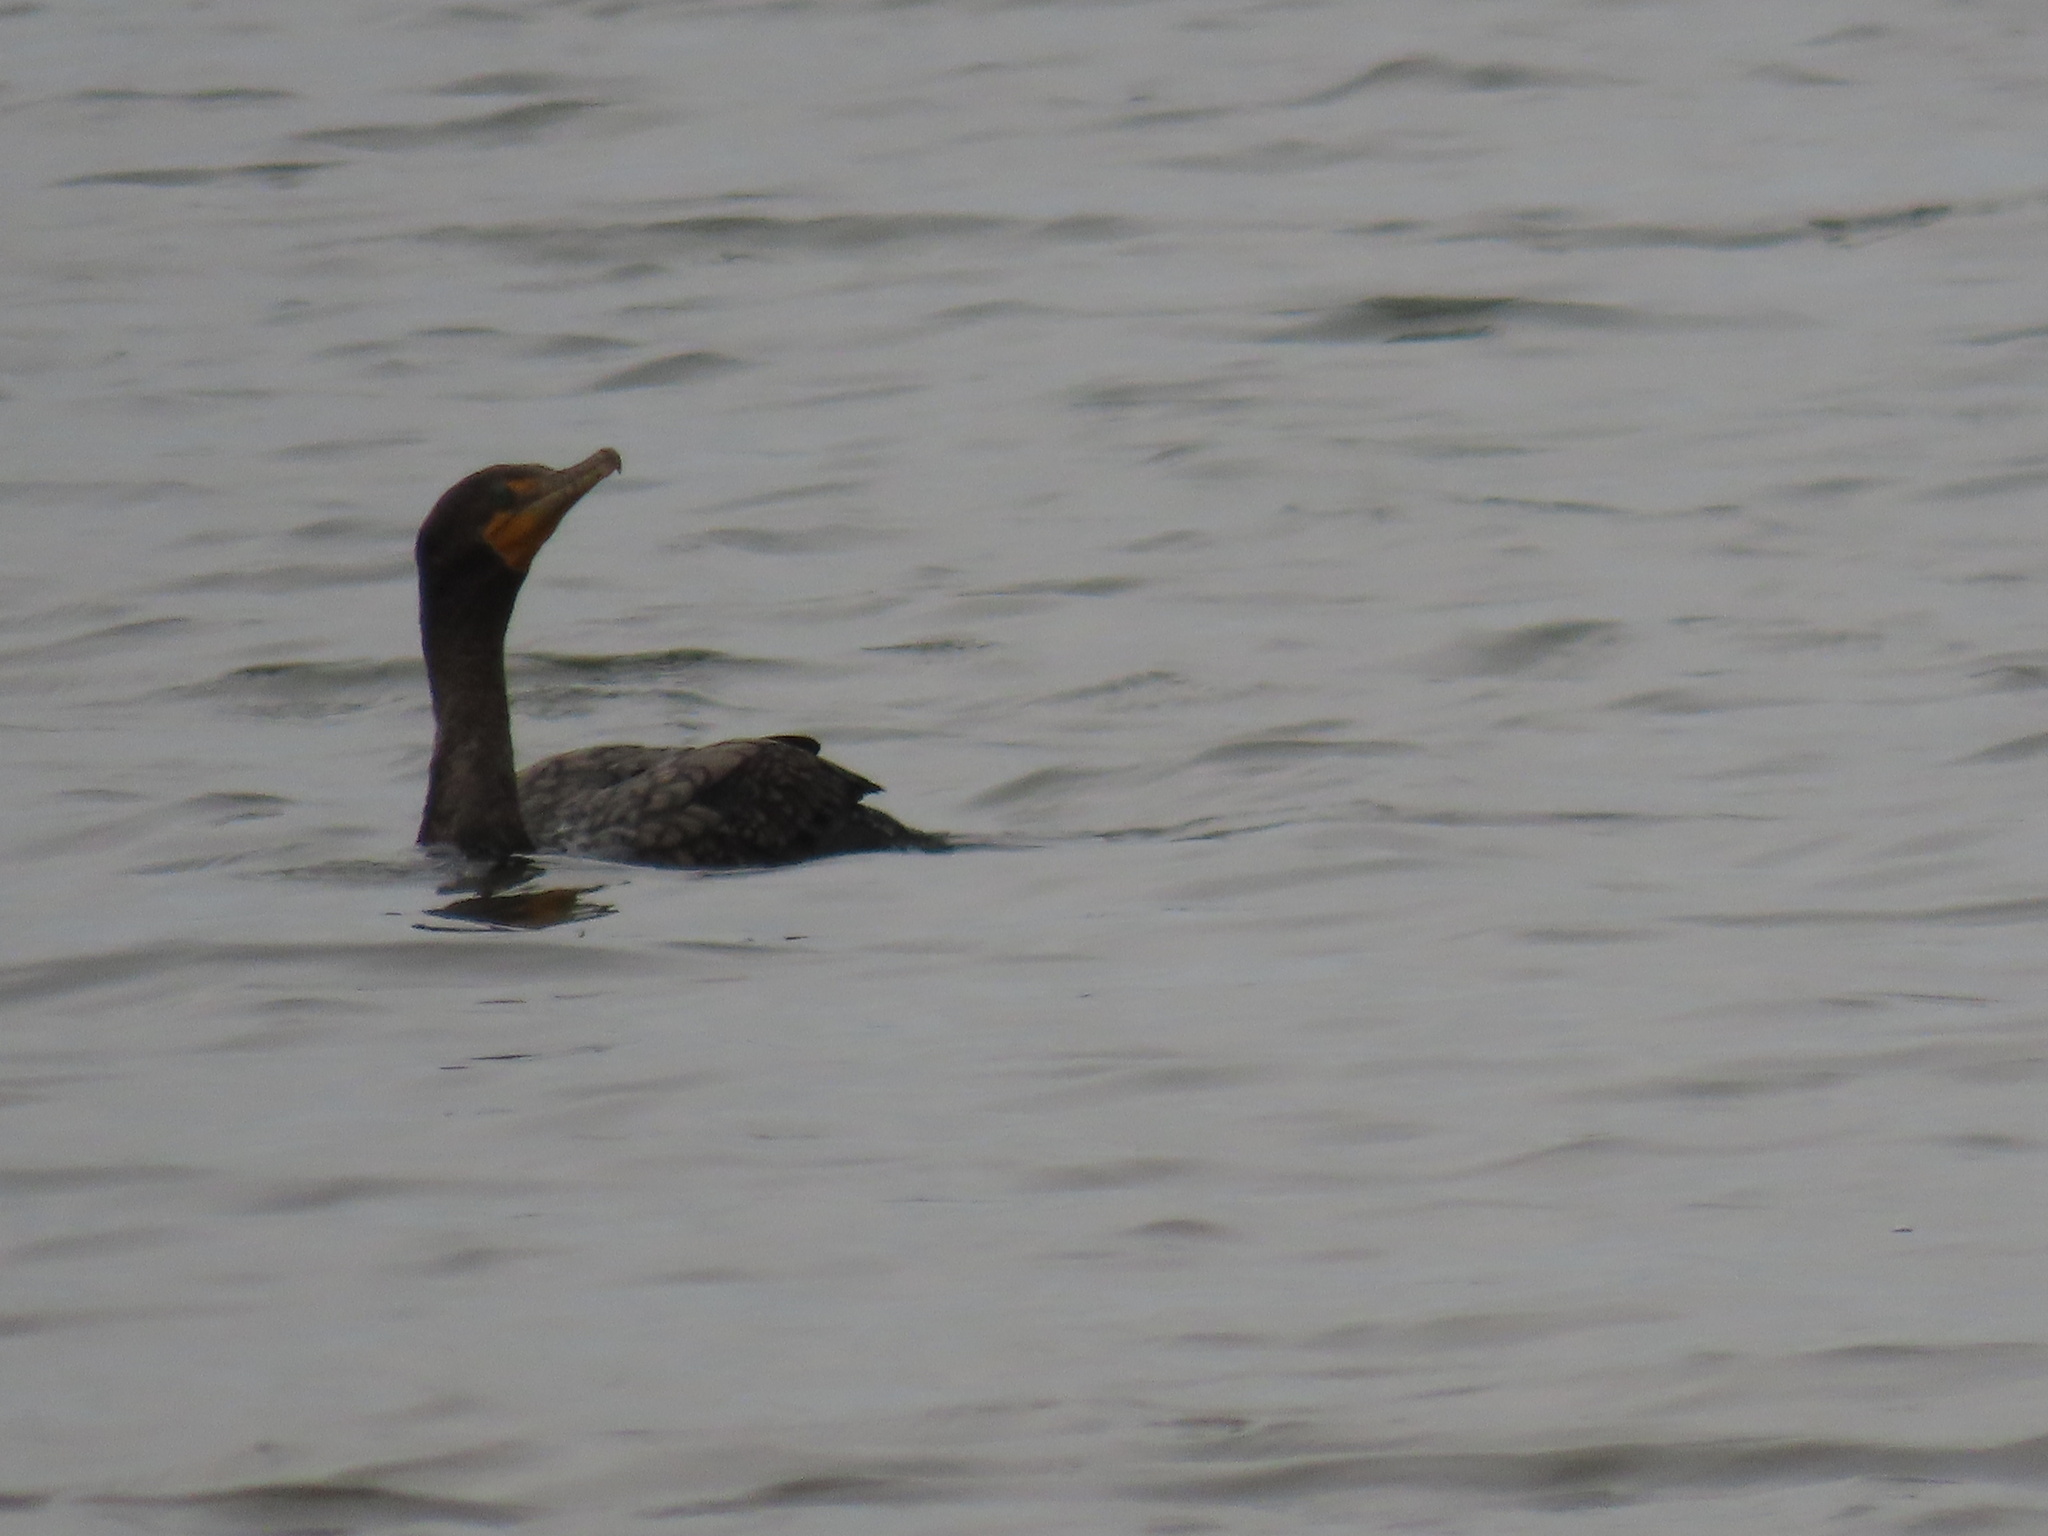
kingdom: Animalia
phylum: Chordata
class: Aves
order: Suliformes
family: Phalacrocoracidae
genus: Phalacrocorax
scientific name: Phalacrocorax auritus
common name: Double-crested cormorant
